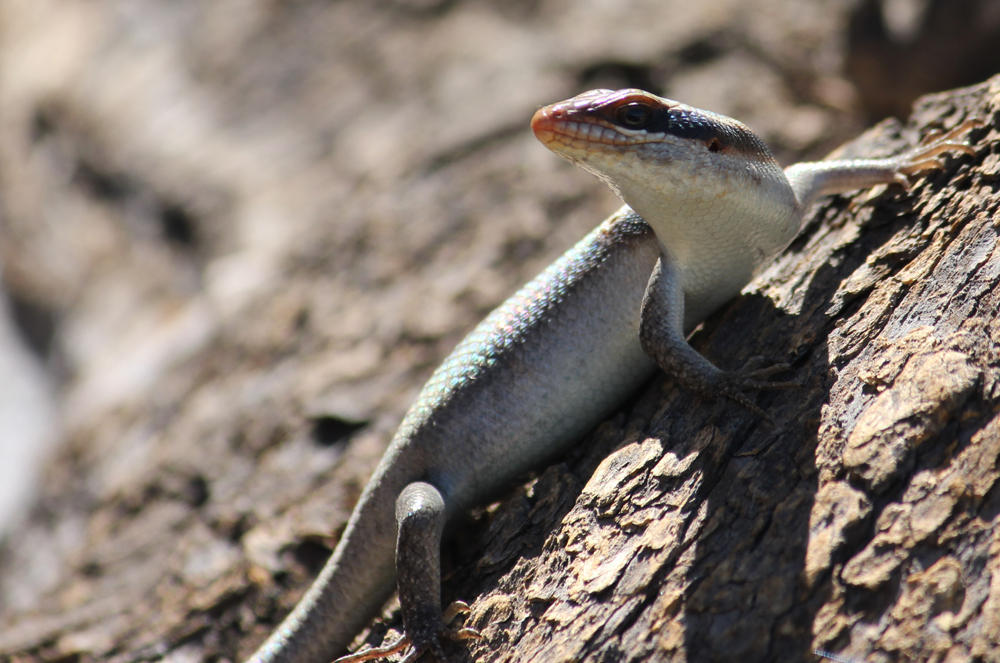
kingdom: Animalia
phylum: Chordata
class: Squamata
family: Scincidae
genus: Trachylepis
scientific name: Trachylepis wahlbergii
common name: Wahlberg’s striped skink
